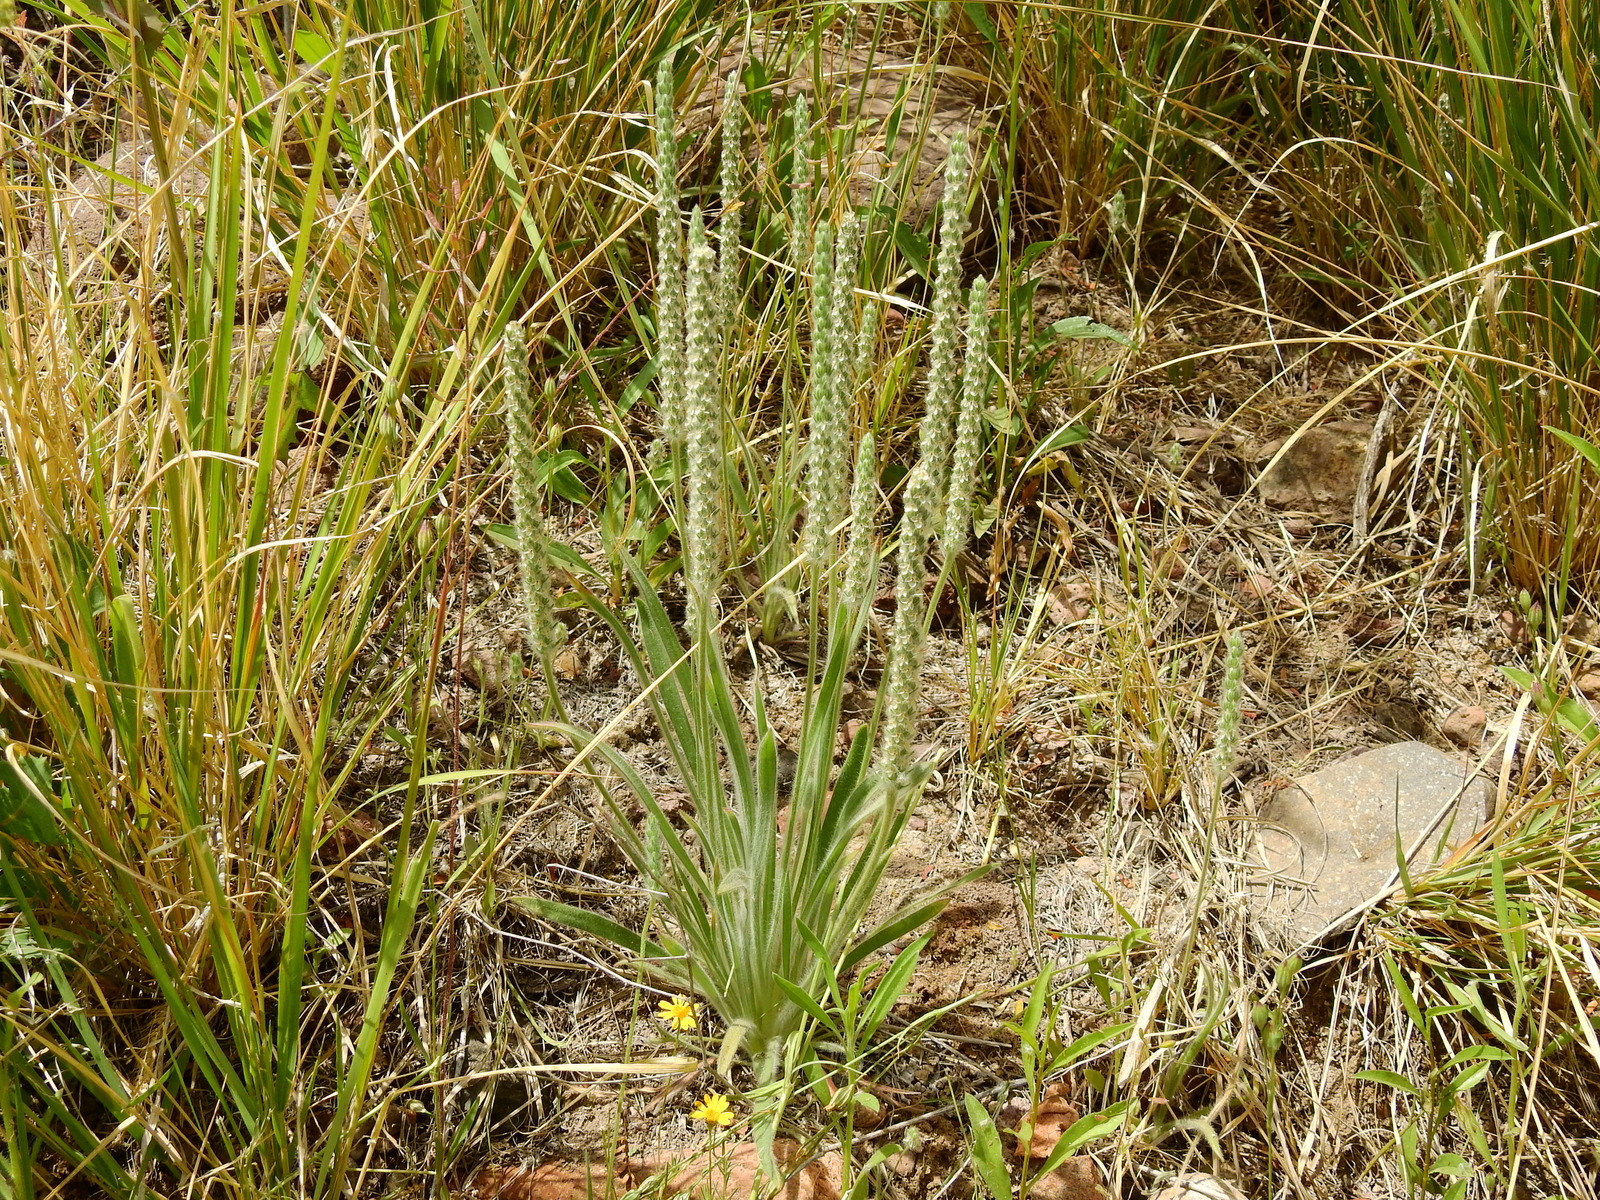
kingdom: Plantae
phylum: Tracheophyta
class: Magnoliopsida
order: Lamiales
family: Plantaginaceae
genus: Plantago
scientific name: Plantago patagonica
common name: Patagonia indian-wheat
